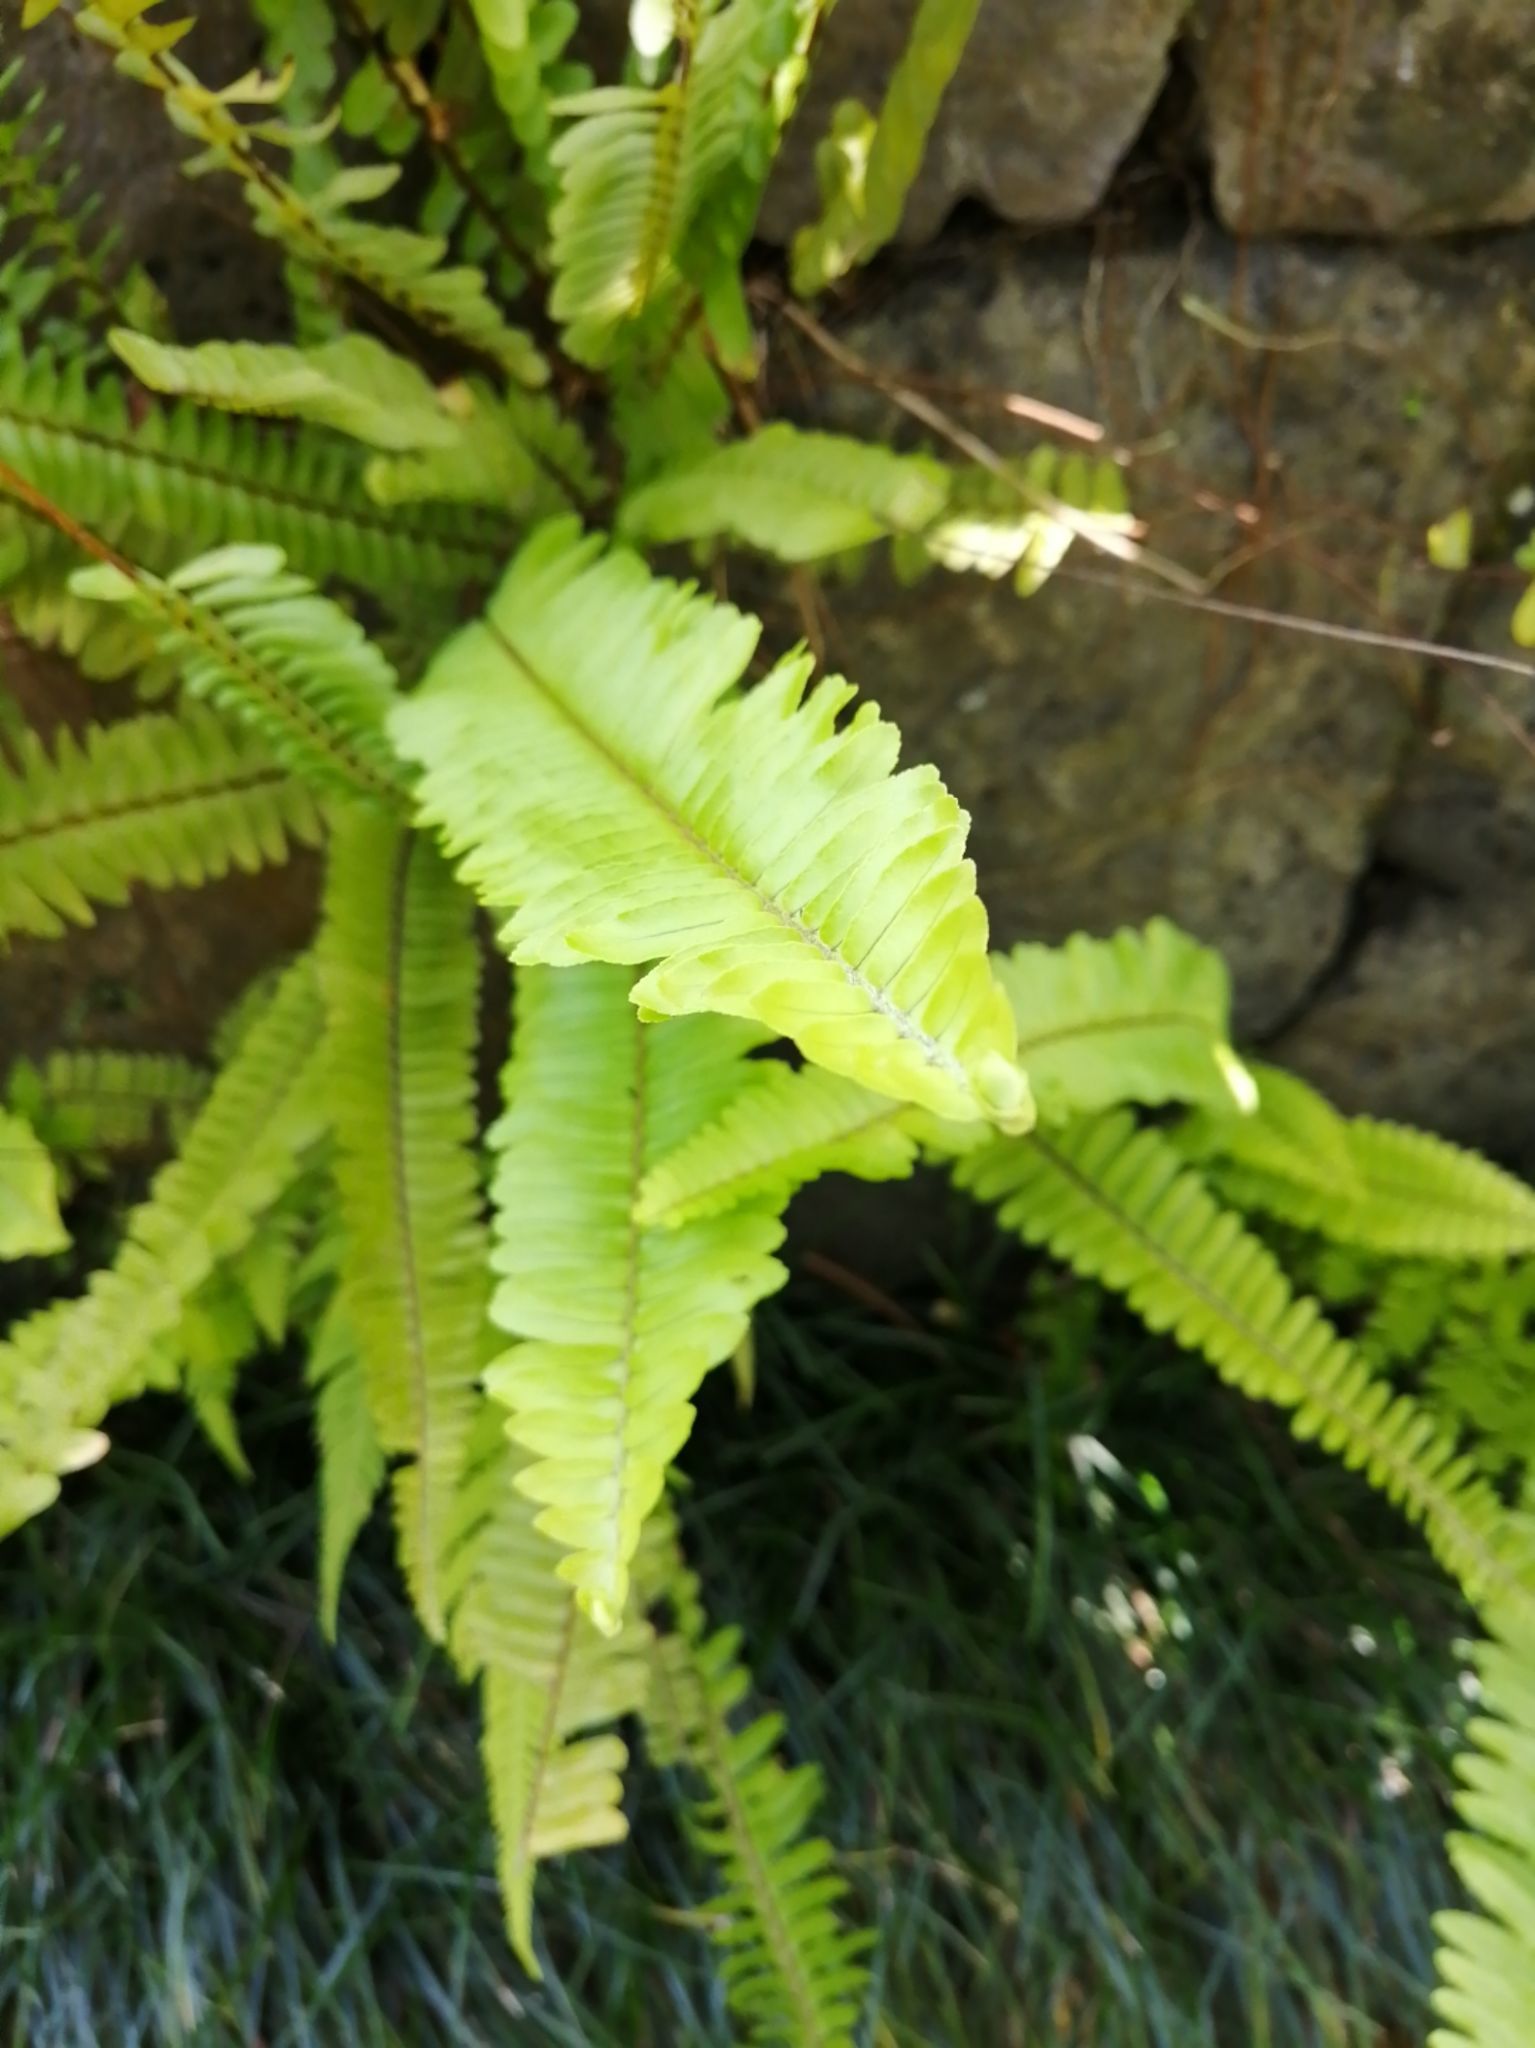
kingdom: Plantae
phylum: Tracheophyta
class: Polypodiopsida
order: Polypodiales
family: Nephrolepidaceae
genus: Nephrolepis
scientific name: Nephrolepis cordifolia
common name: Narrow swordfern
